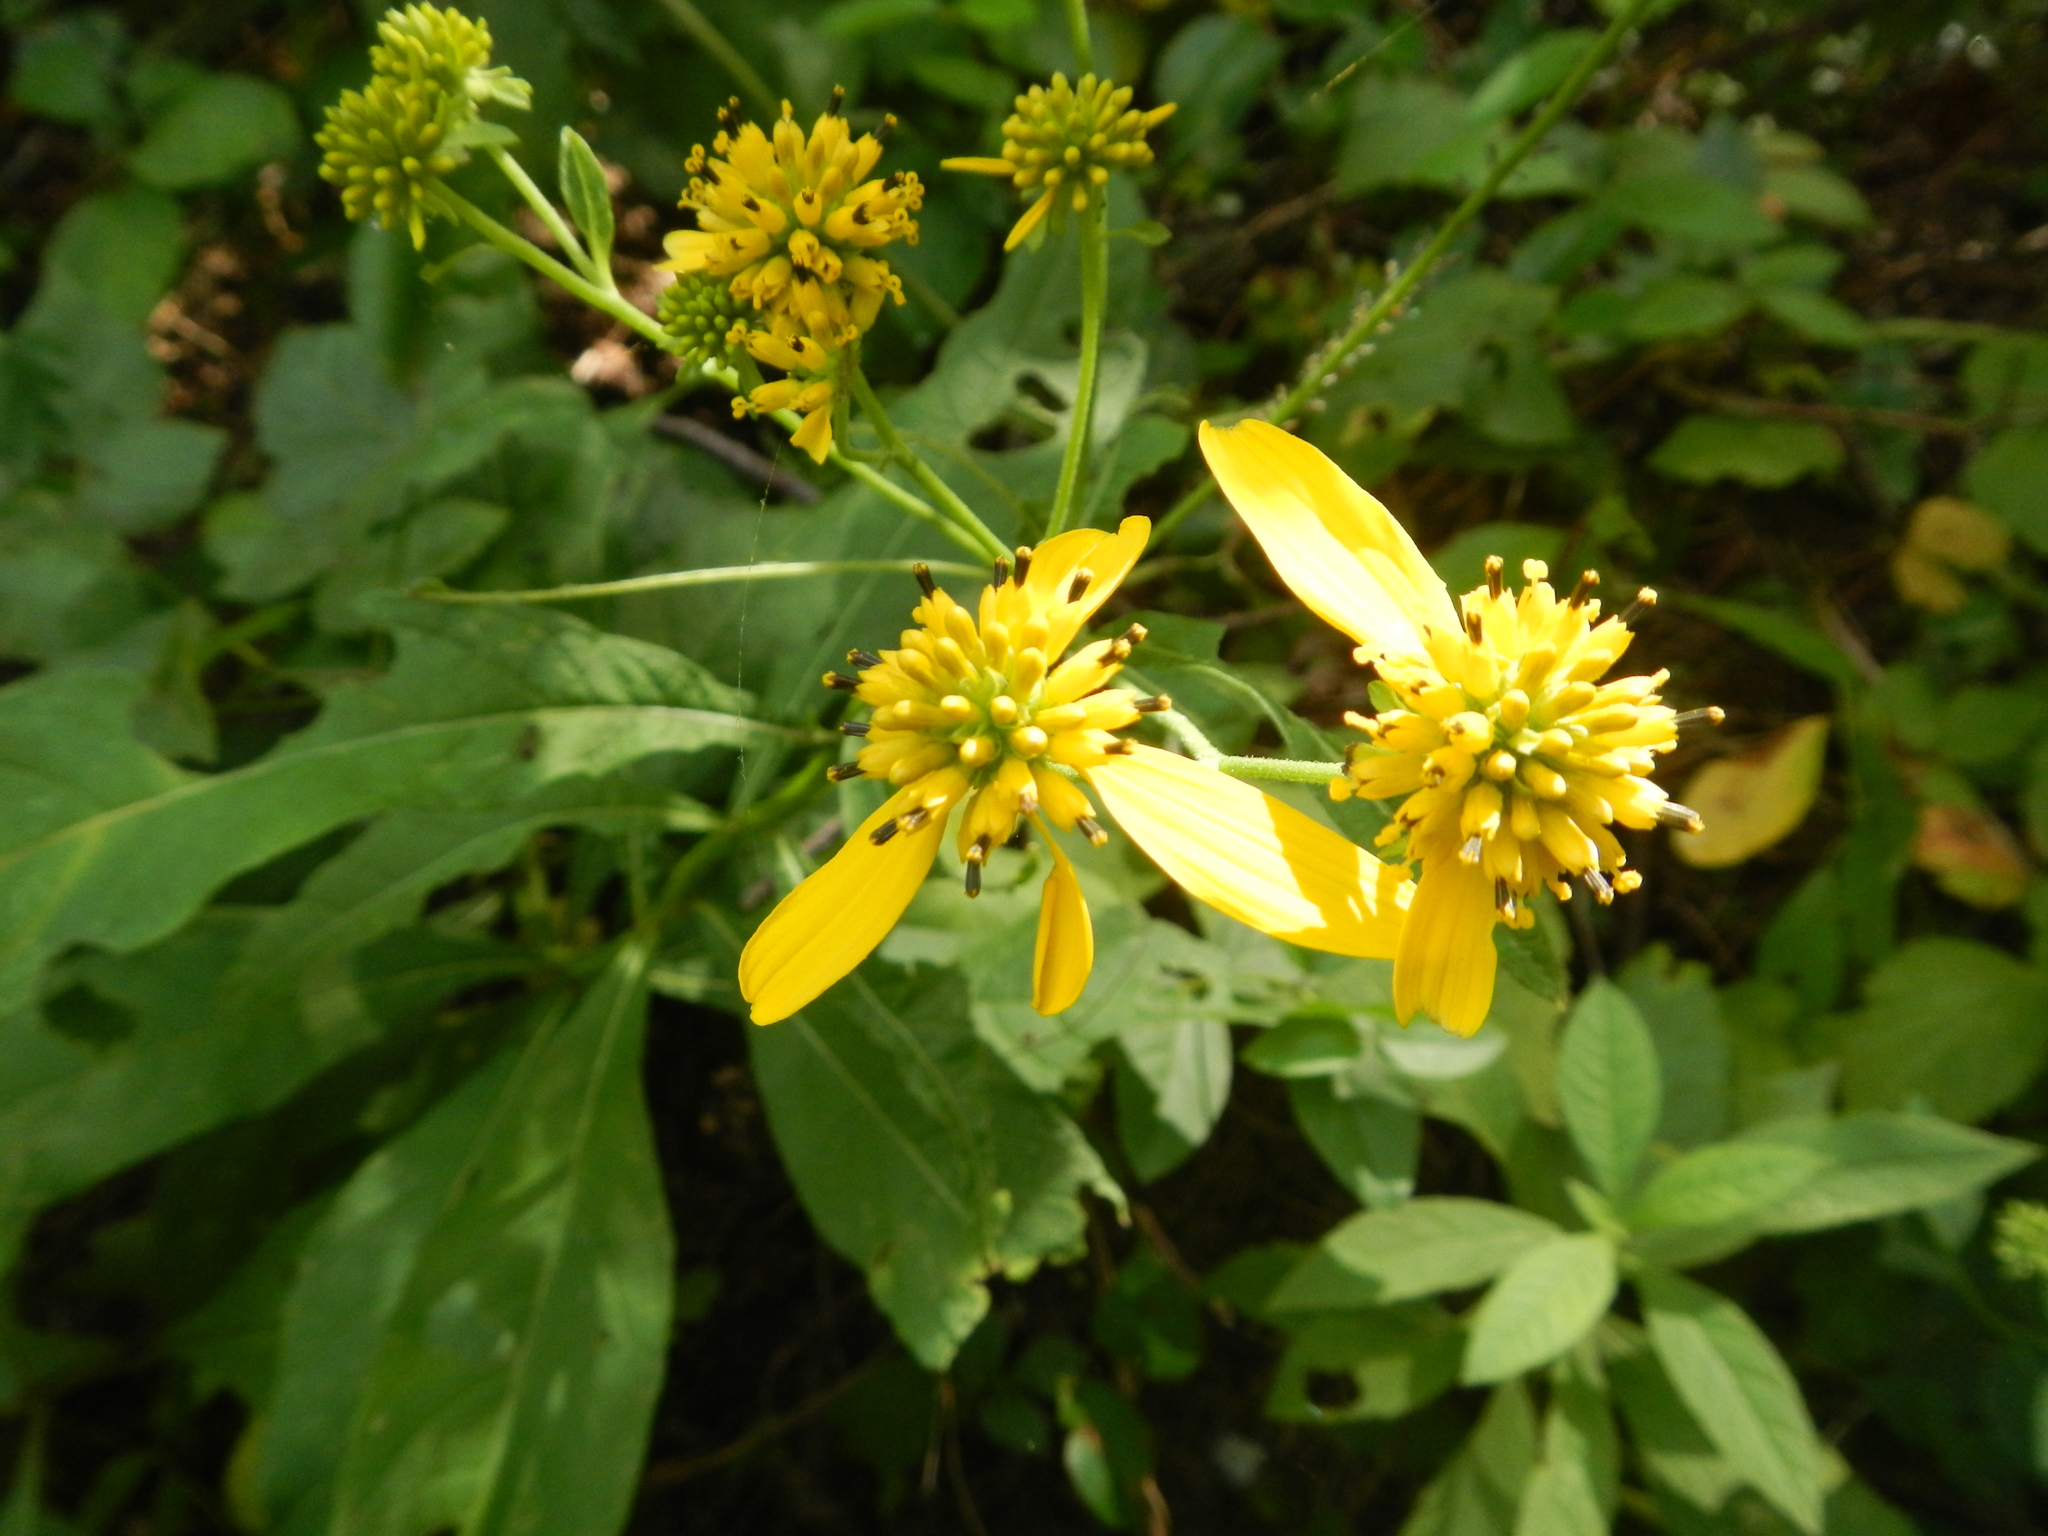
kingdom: Plantae
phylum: Tracheophyta
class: Magnoliopsida
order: Asterales
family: Asteraceae
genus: Verbesina
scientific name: Verbesina alternifolia
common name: Wingstem
